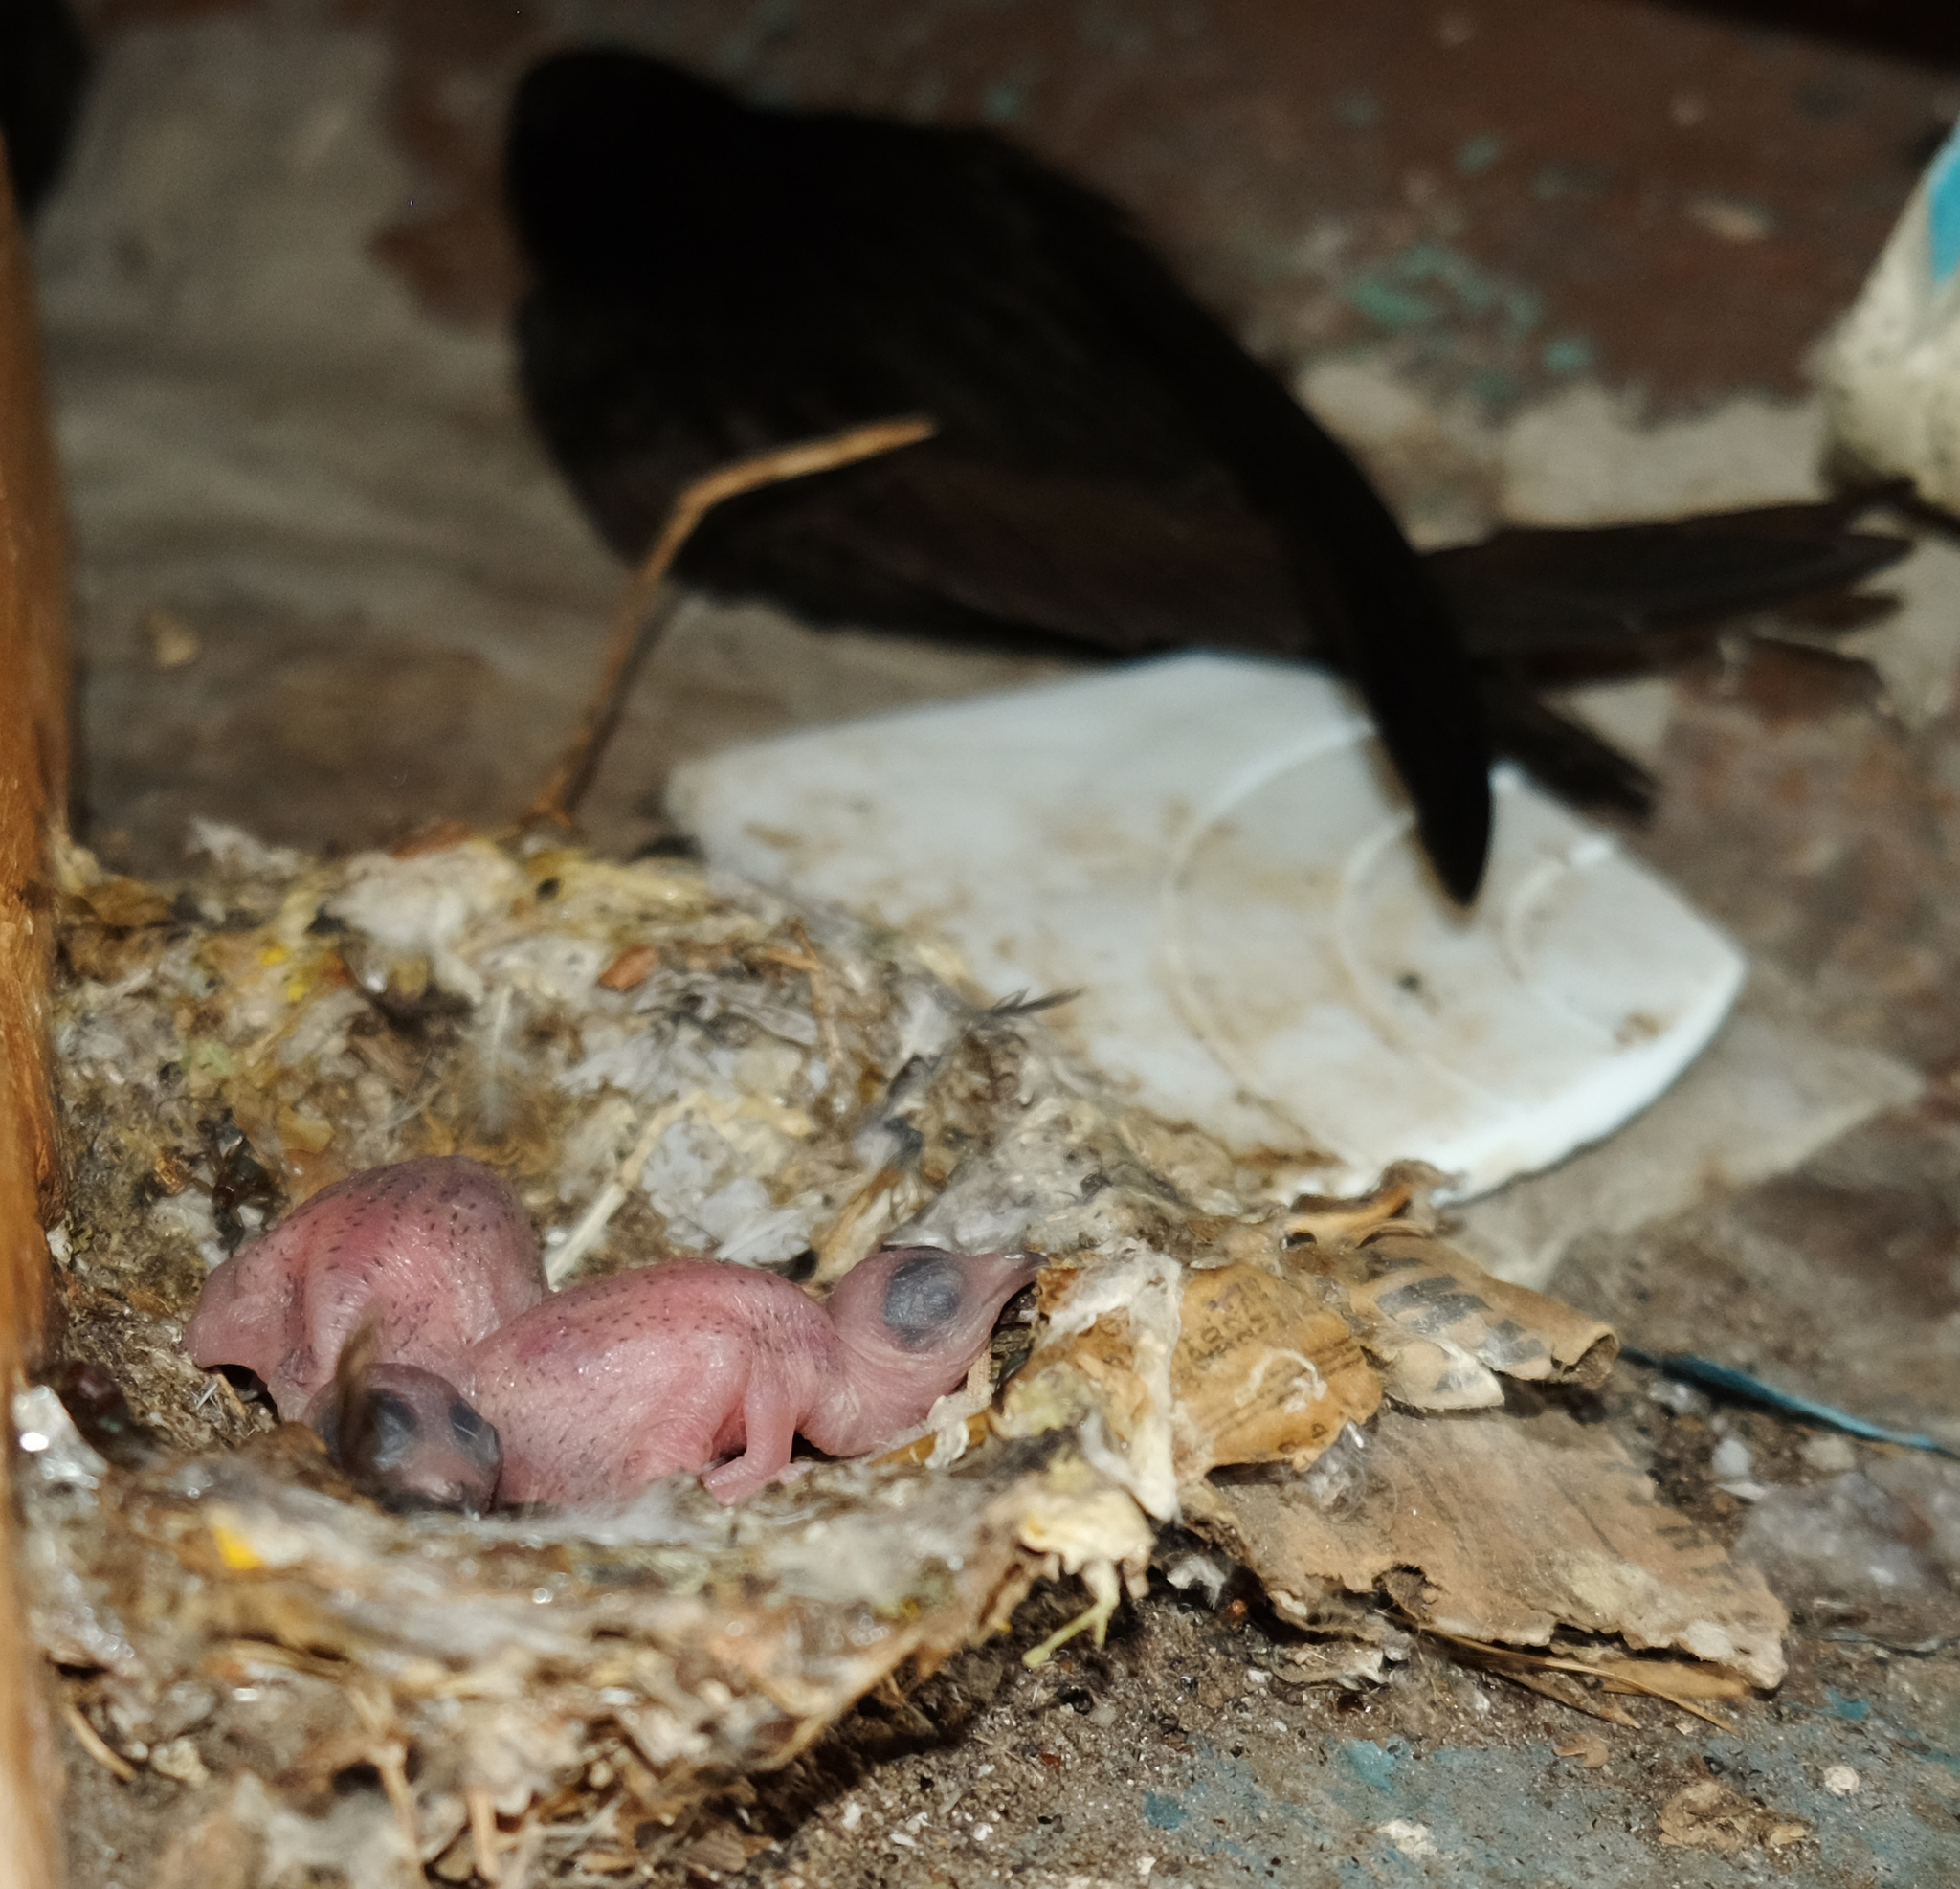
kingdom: Animalia
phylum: Chordata
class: Aves
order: Apodiformes
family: Apodidae
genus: Apus
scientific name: Apus apus
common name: Common swift
